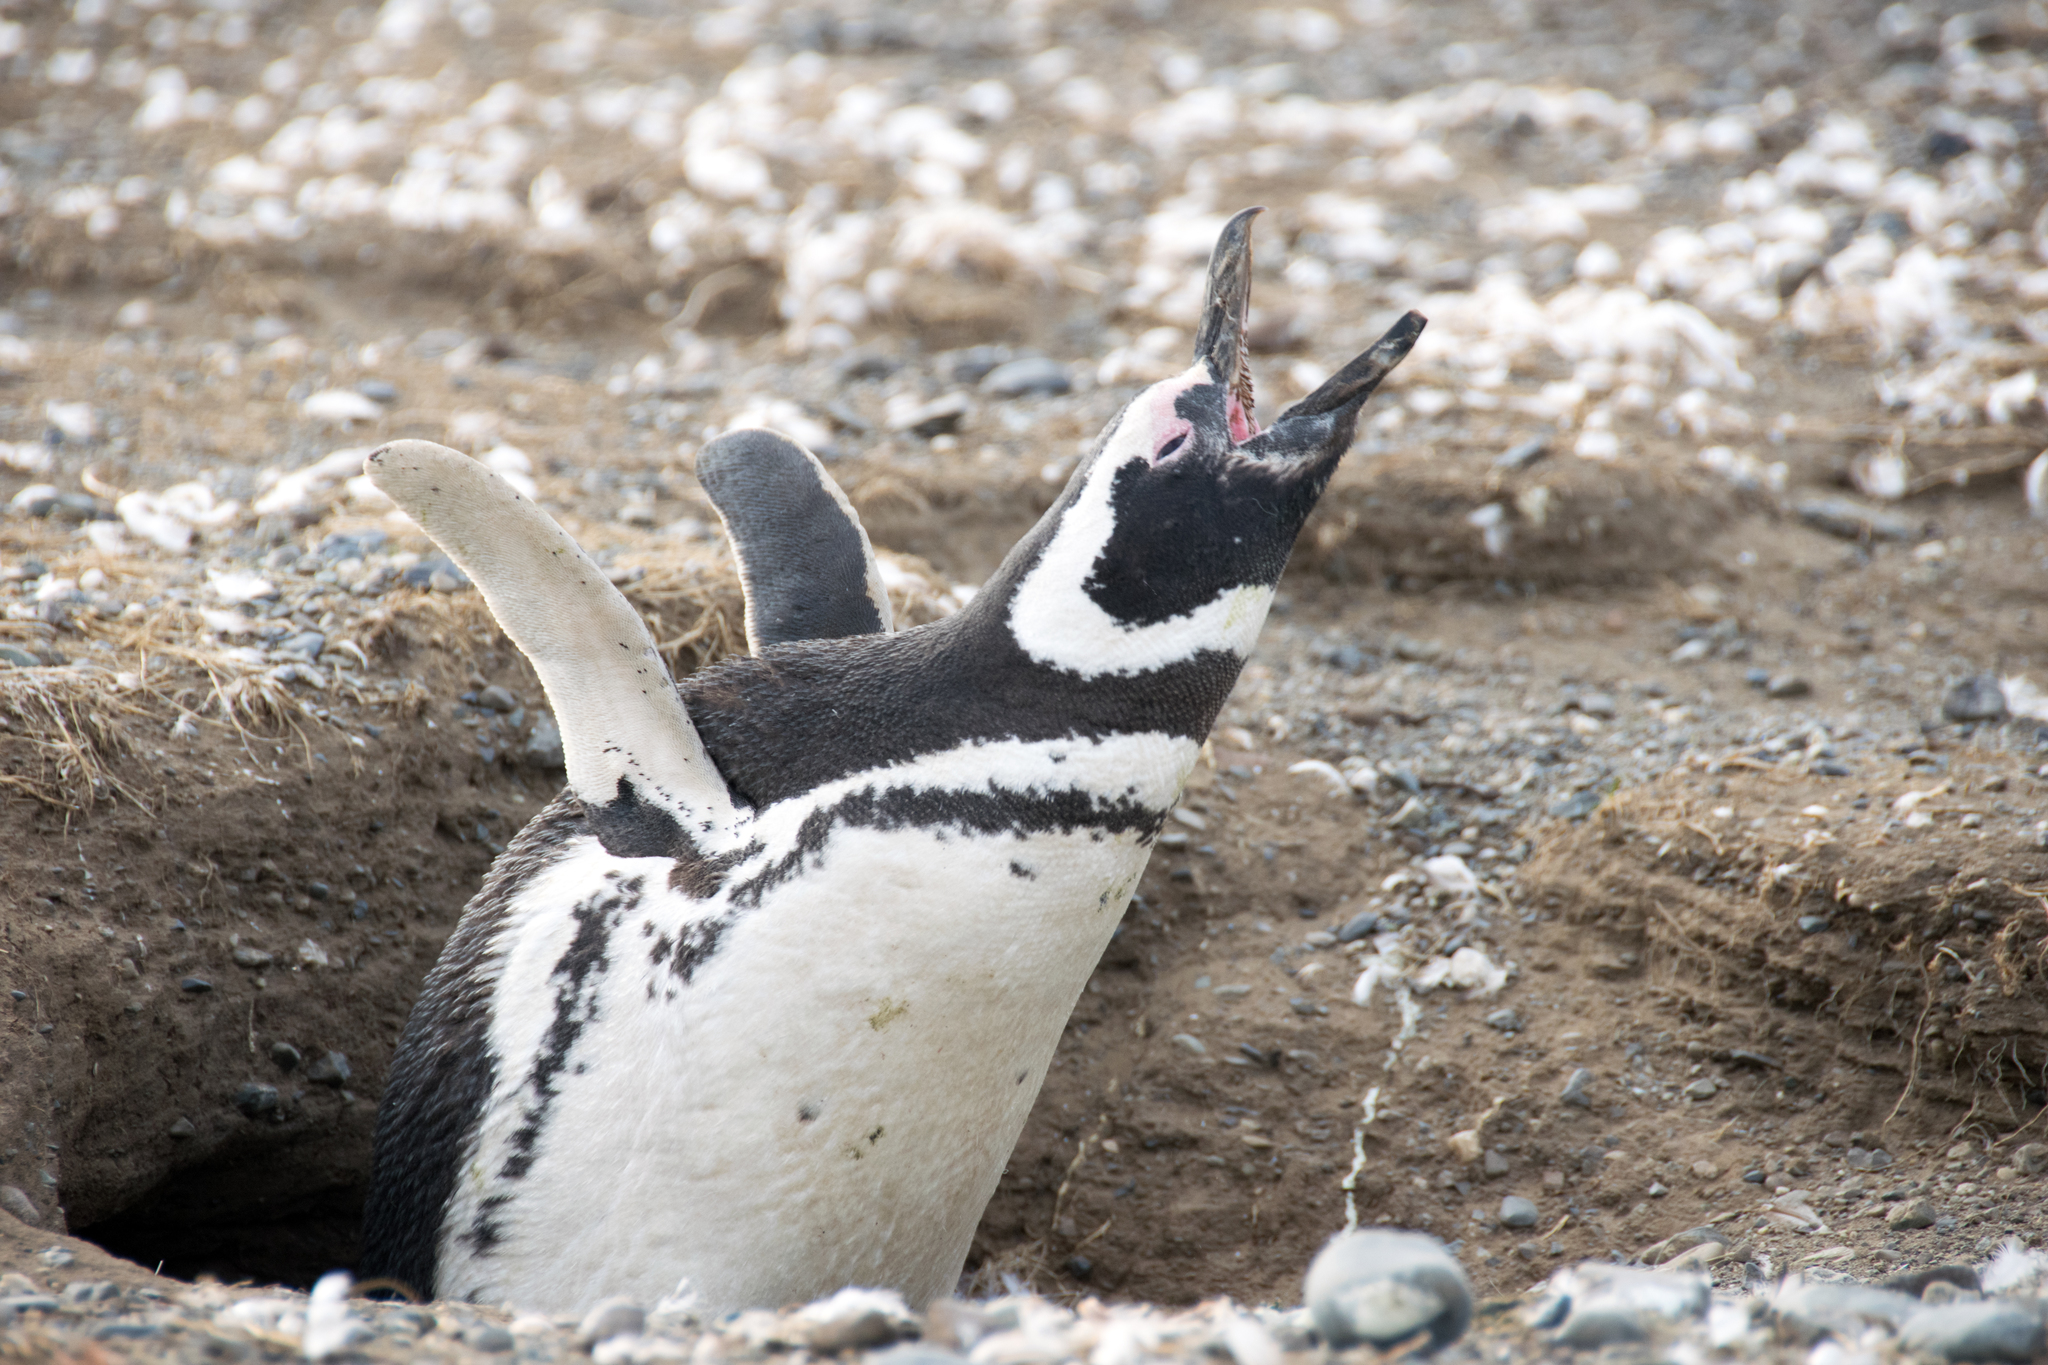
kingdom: Animalia
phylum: Chordata
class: Aves
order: Sphenisciformes
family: Spheniscidae
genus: Spheniscus
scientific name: Spheniscus magellanicus
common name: Magellanic penguin
